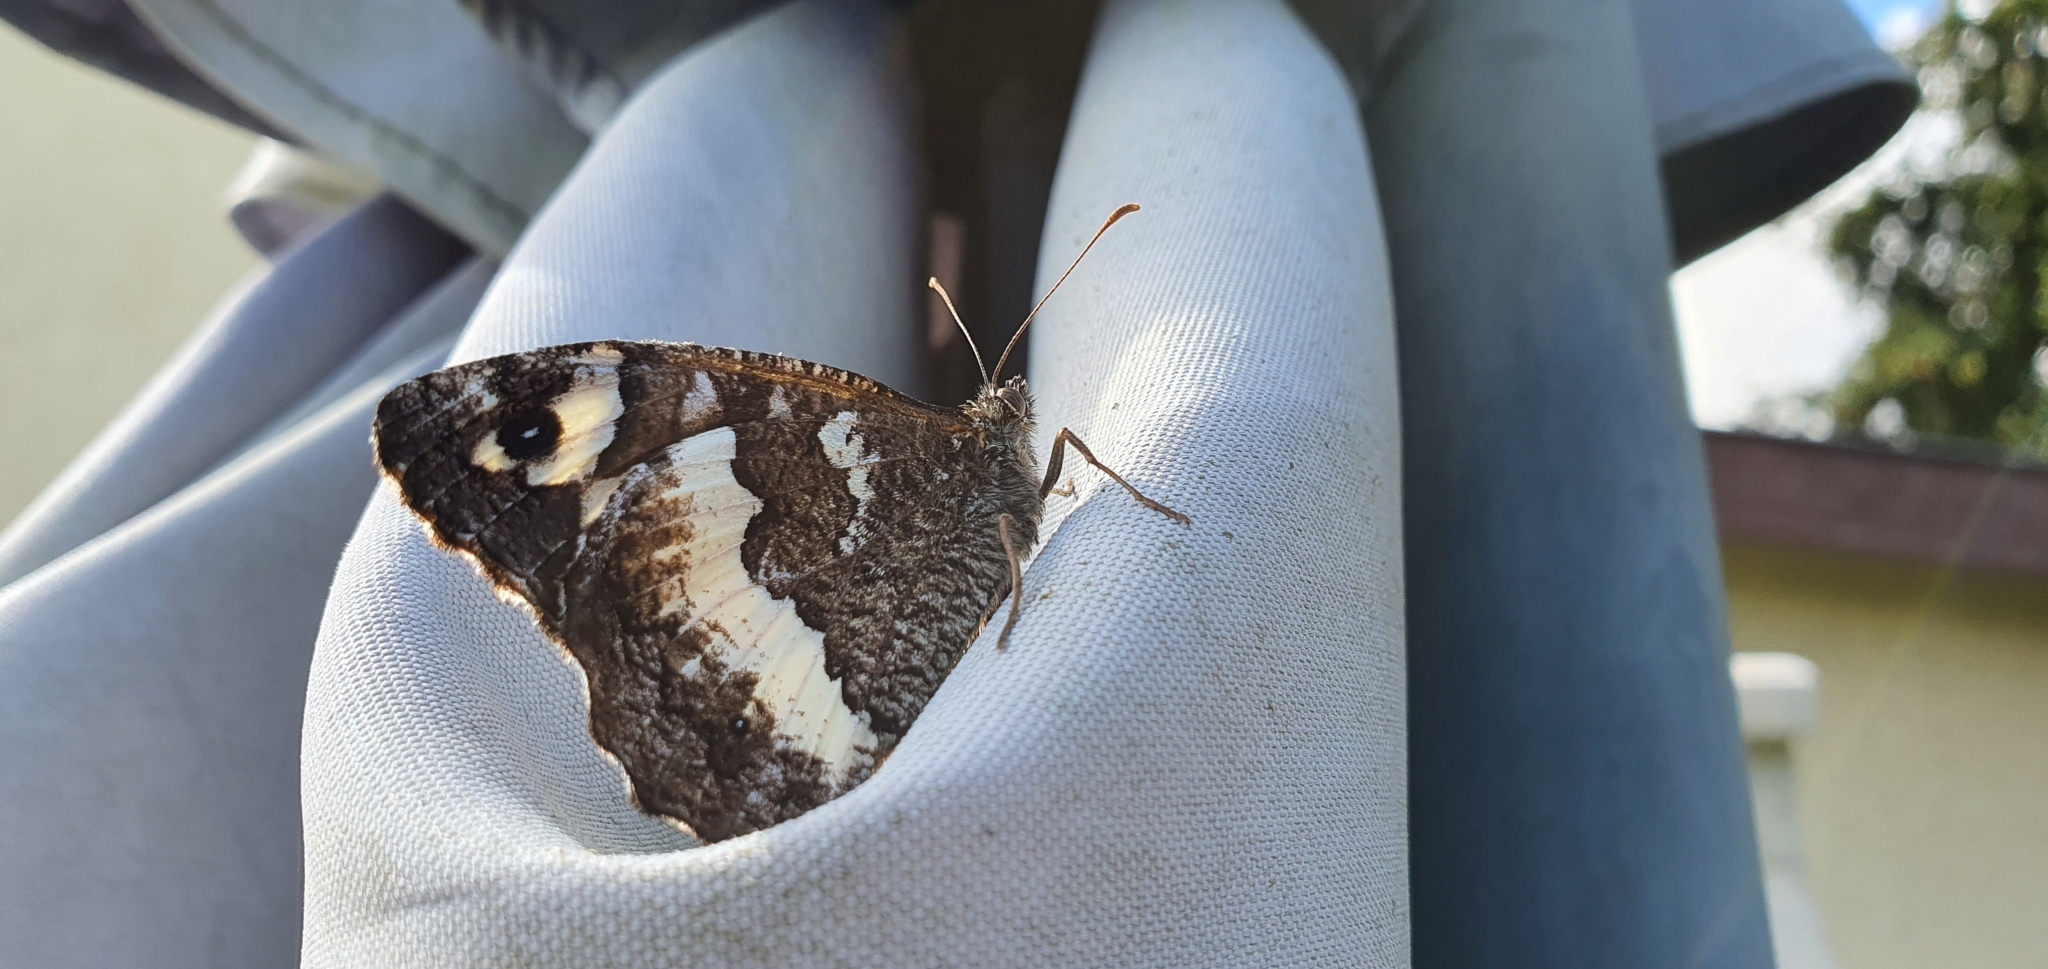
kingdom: Animalia
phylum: Arthropoda
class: Insecta
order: Lepidoptera
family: Lycaenidae
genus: Loweia
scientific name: Loweia tityrus
